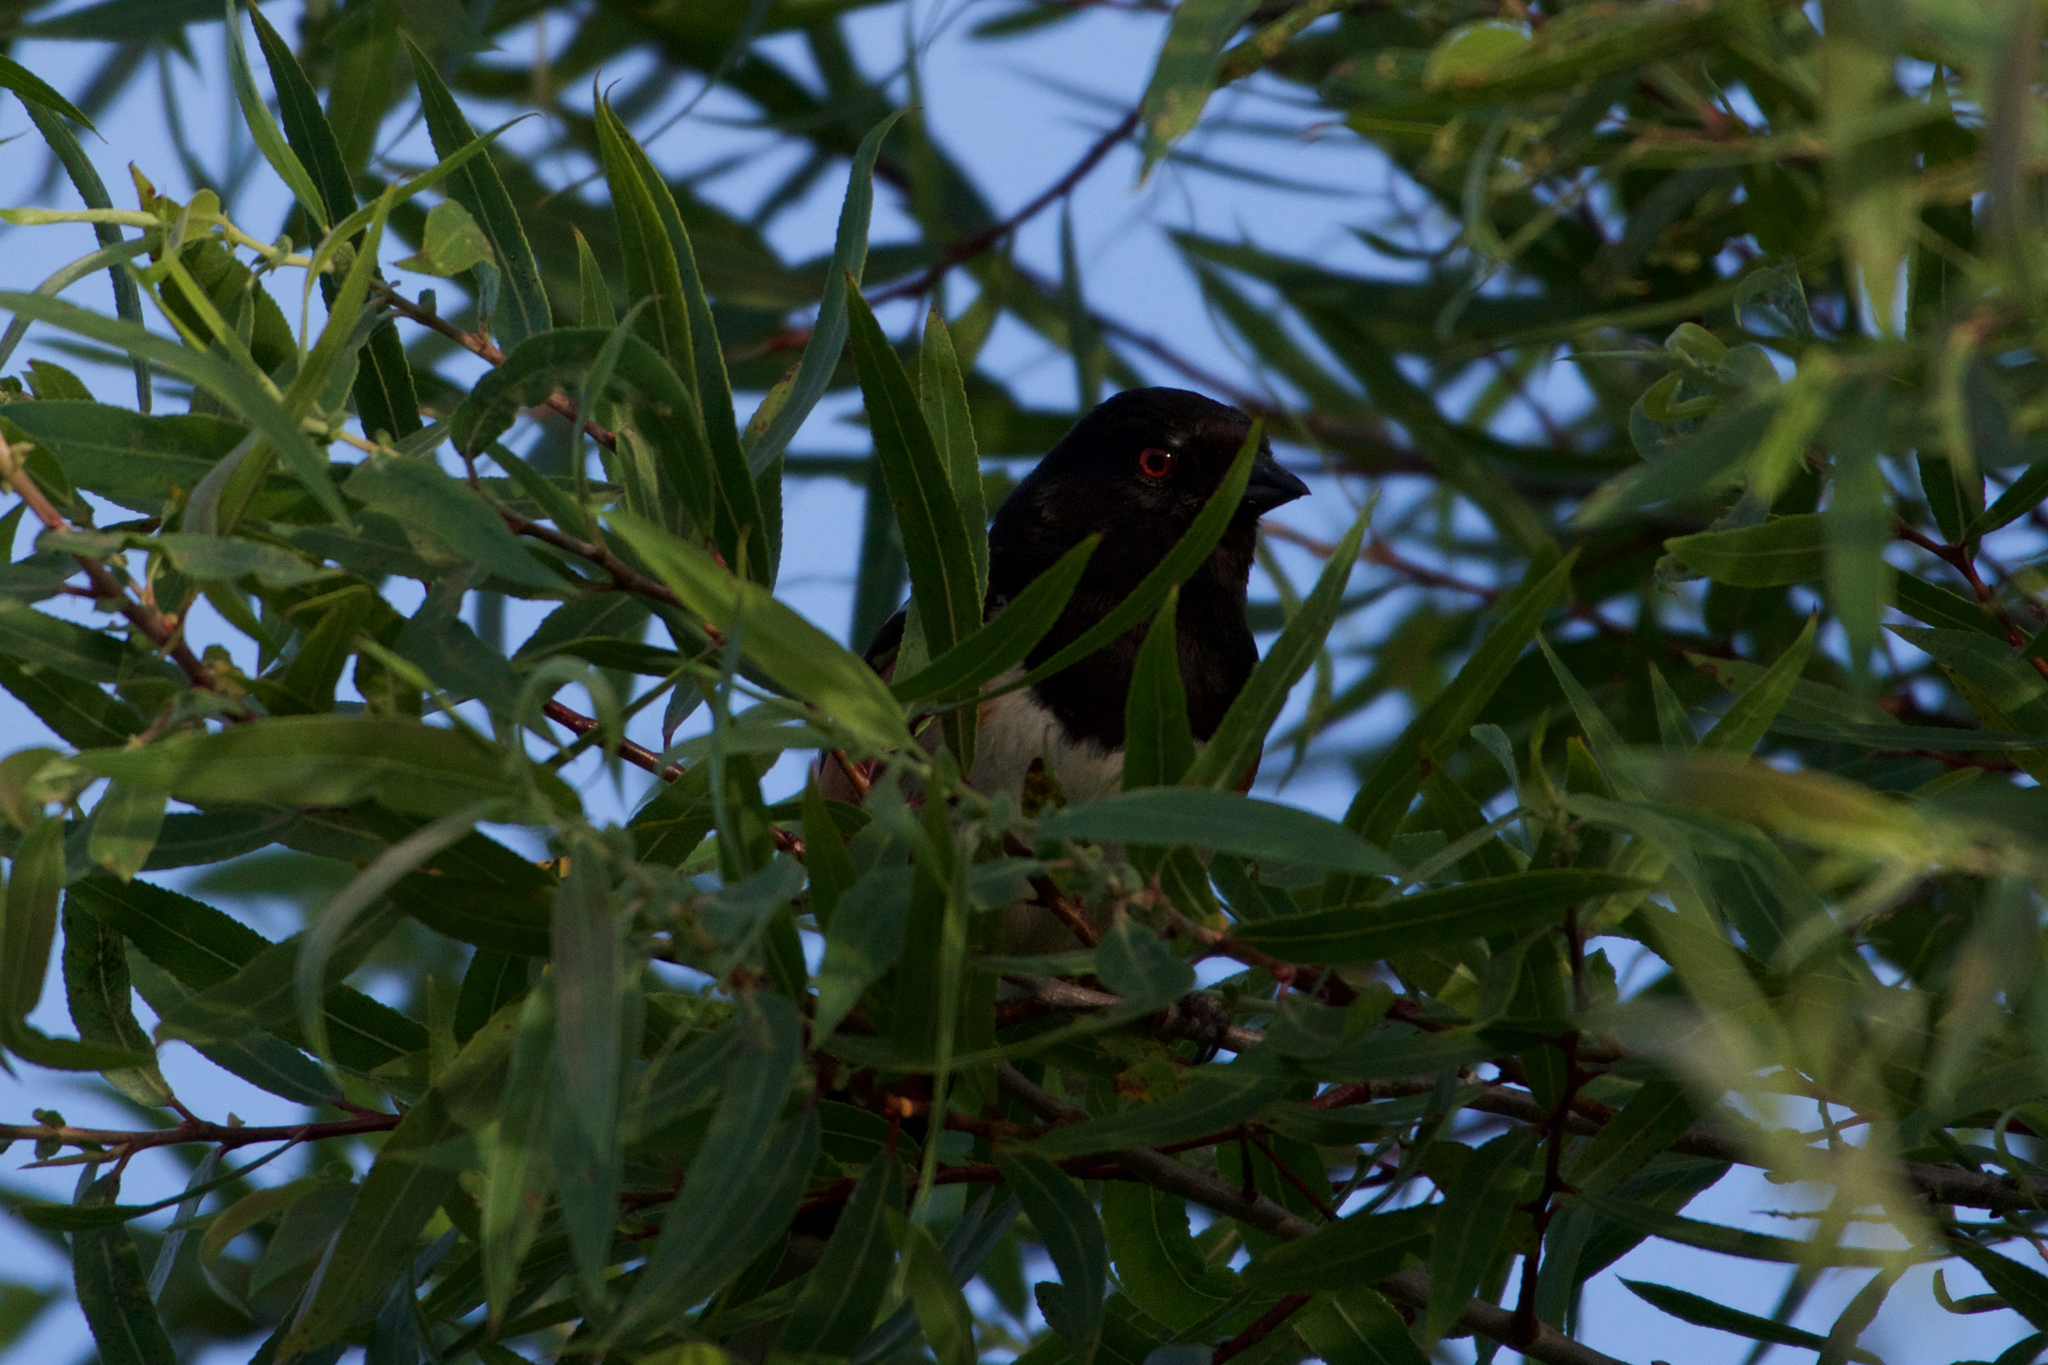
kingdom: Animalia
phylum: Chordata
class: Aves
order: Passeriformes
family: Passerellidae
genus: Pipilo
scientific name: Pipilo maculatus
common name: Spotted towhee
